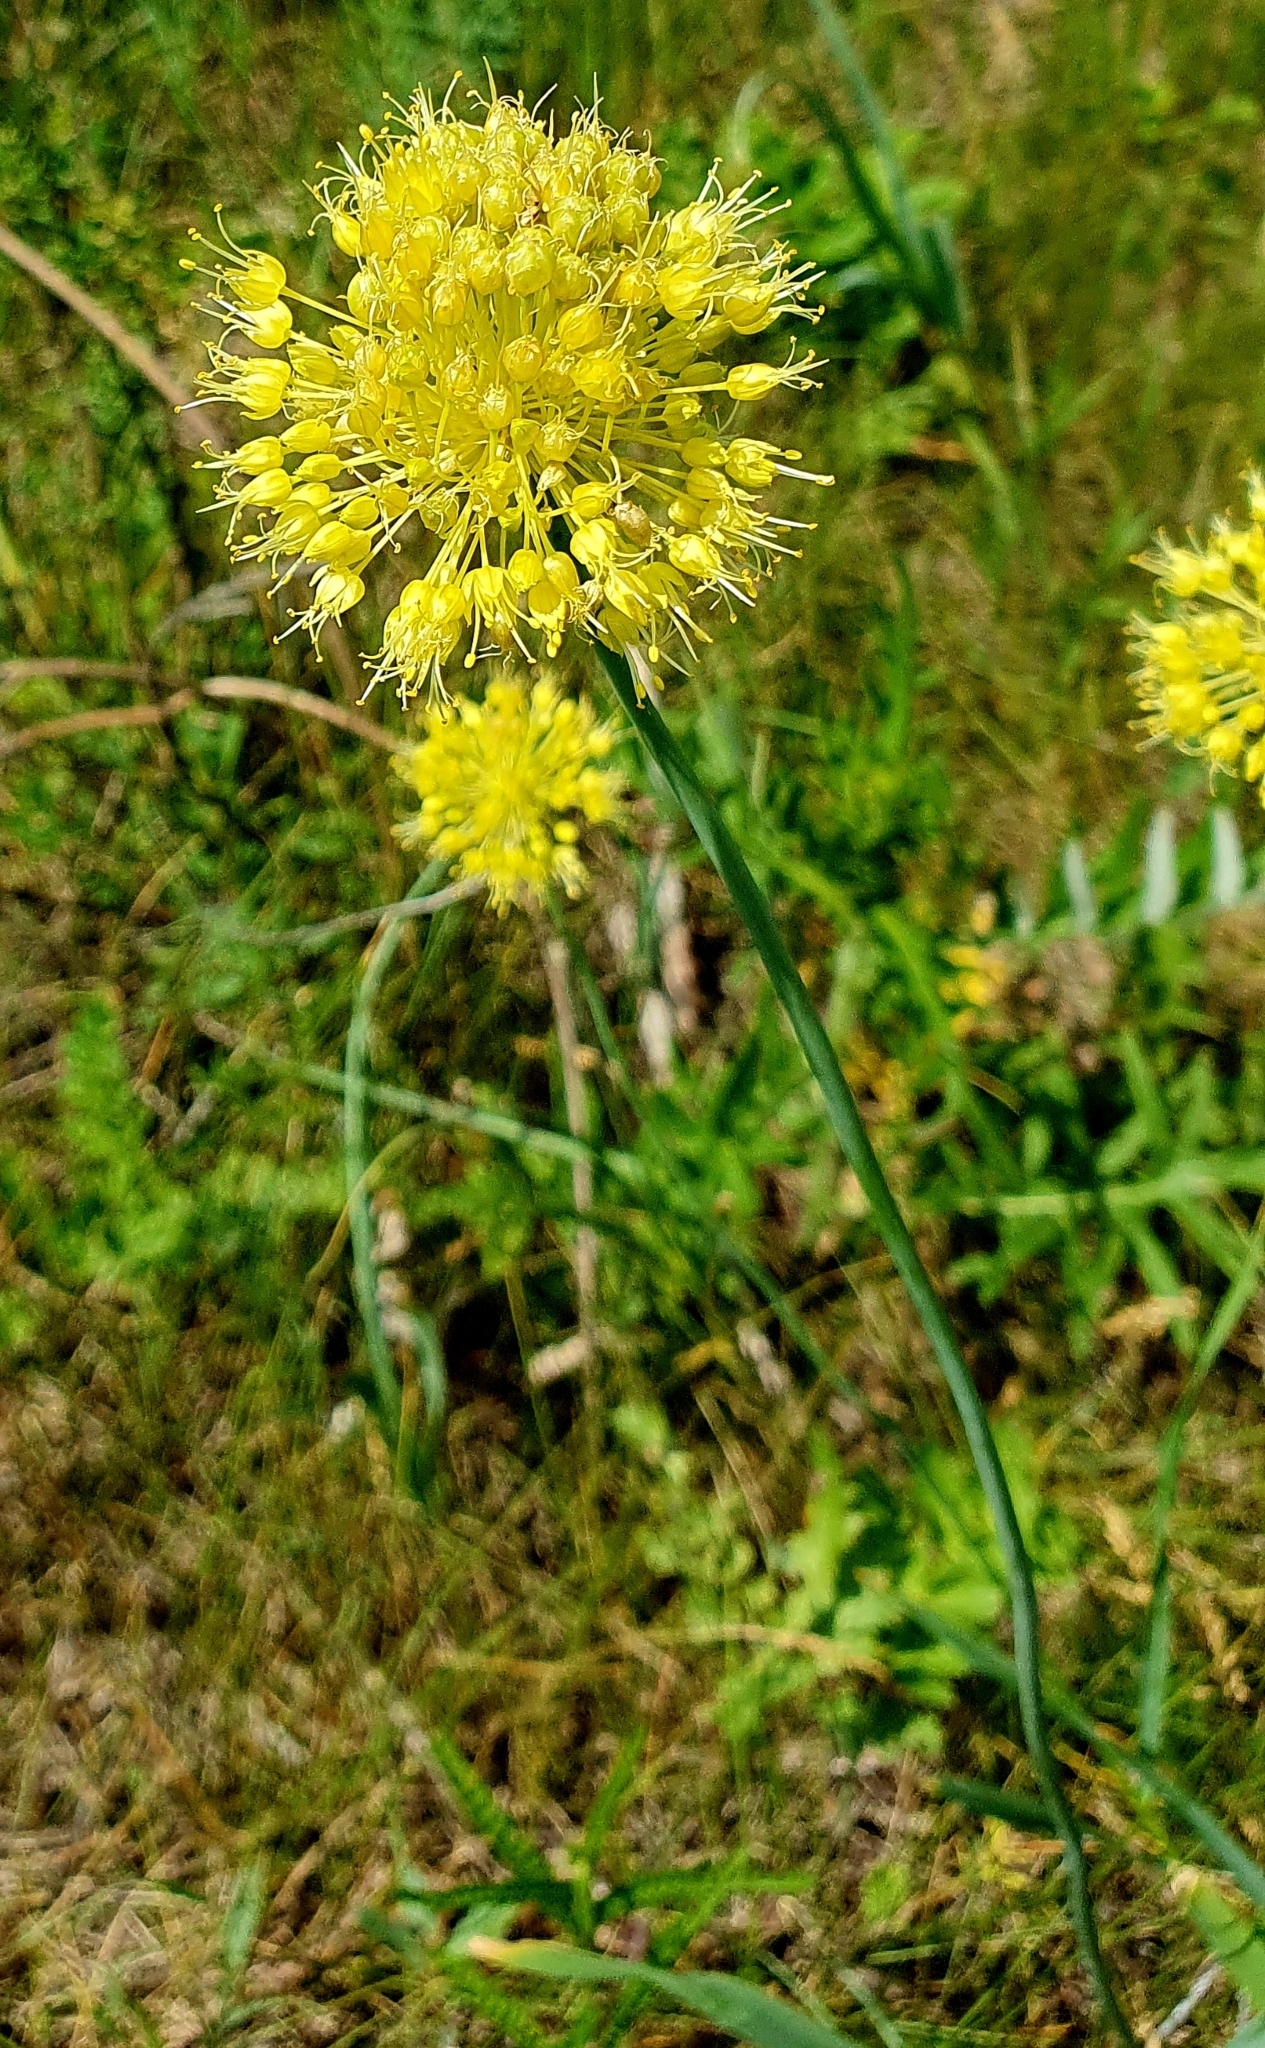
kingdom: Plantae
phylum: Tracheophyta
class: Liliopsida
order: Asparagales
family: Amaryllidaceae
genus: Allium
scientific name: Allium obliquum
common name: Oblique onion
